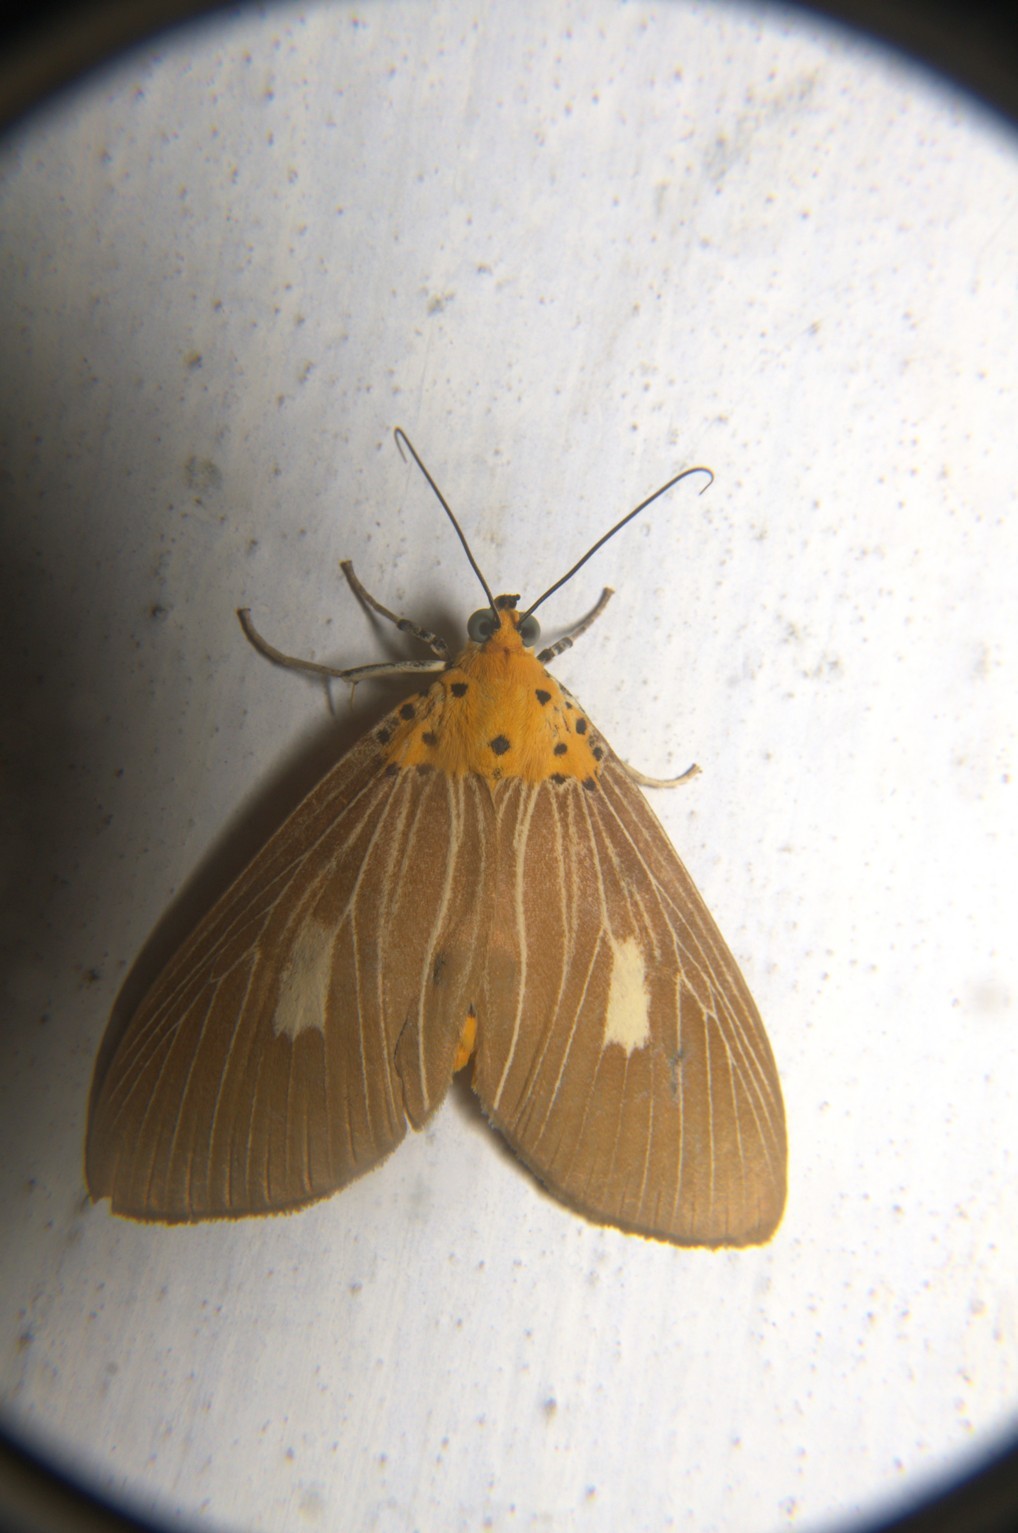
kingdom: Animalia
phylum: Arthropoda
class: Insecta
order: Lepidoptera
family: Erebidae
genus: Asota
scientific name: Asota plaginota
